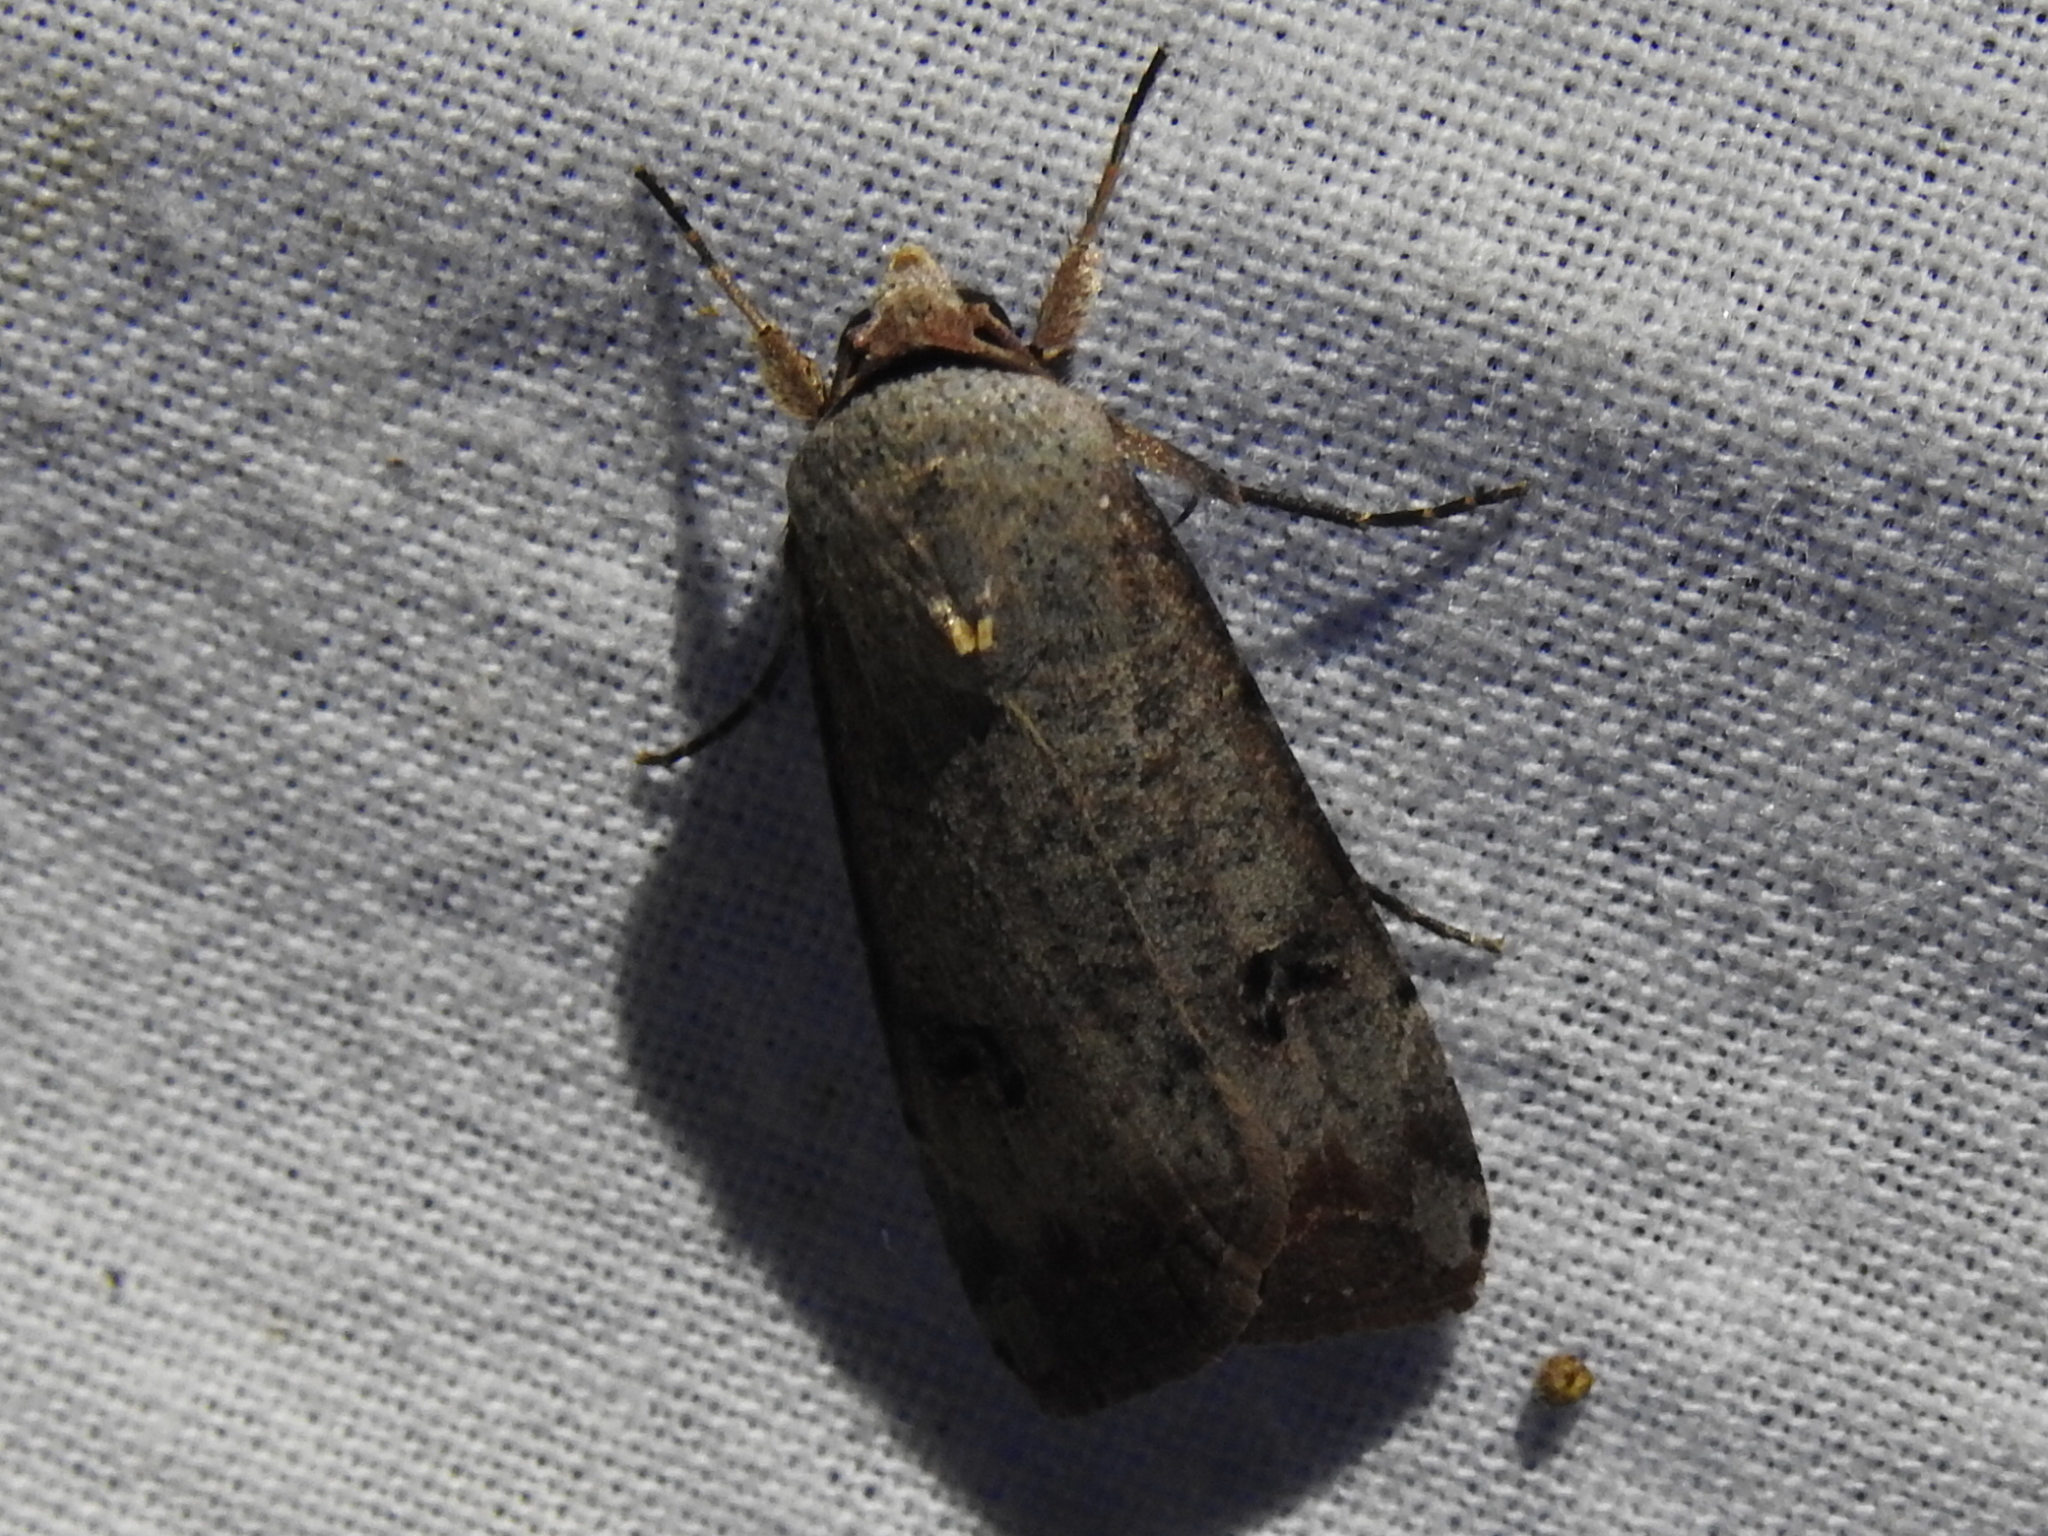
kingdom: Animalia
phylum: Arthropoda
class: Insecta
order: Lepidoptera
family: Noctuidae
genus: Anicla
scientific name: Anicla infecta
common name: Green cutworm
